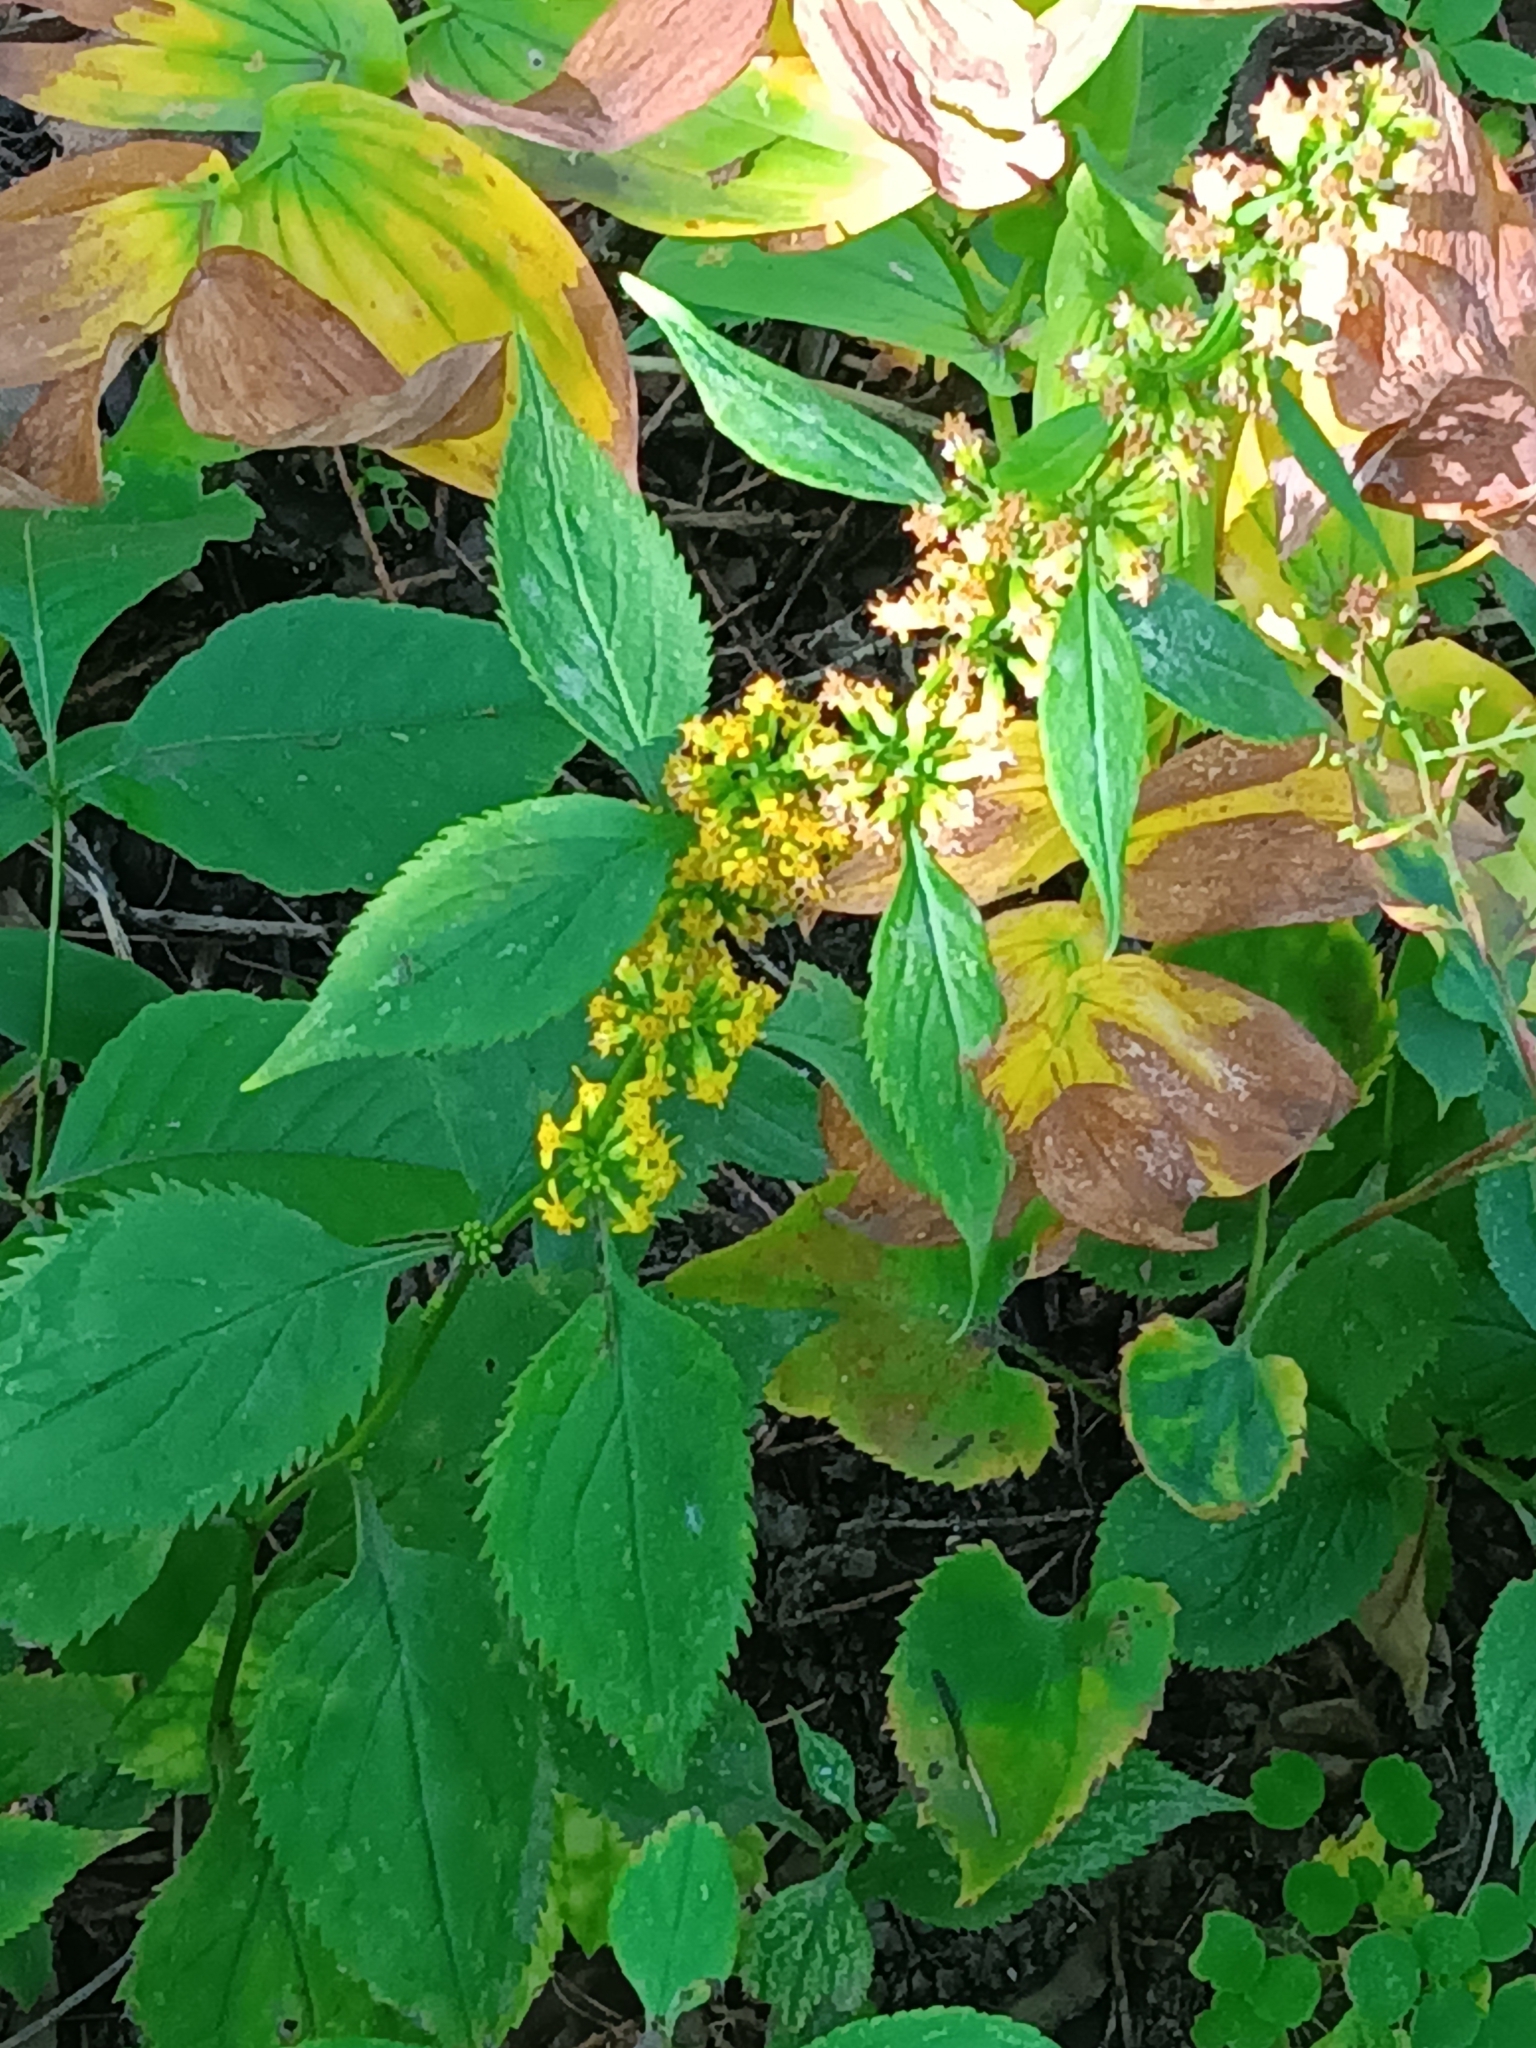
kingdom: Plantae
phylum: Tracheophyta
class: Magnoliopsida
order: Asterales
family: Asteraceae
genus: Solidago
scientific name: Solidago flexicaulis
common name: Zig-zag goldenrod
